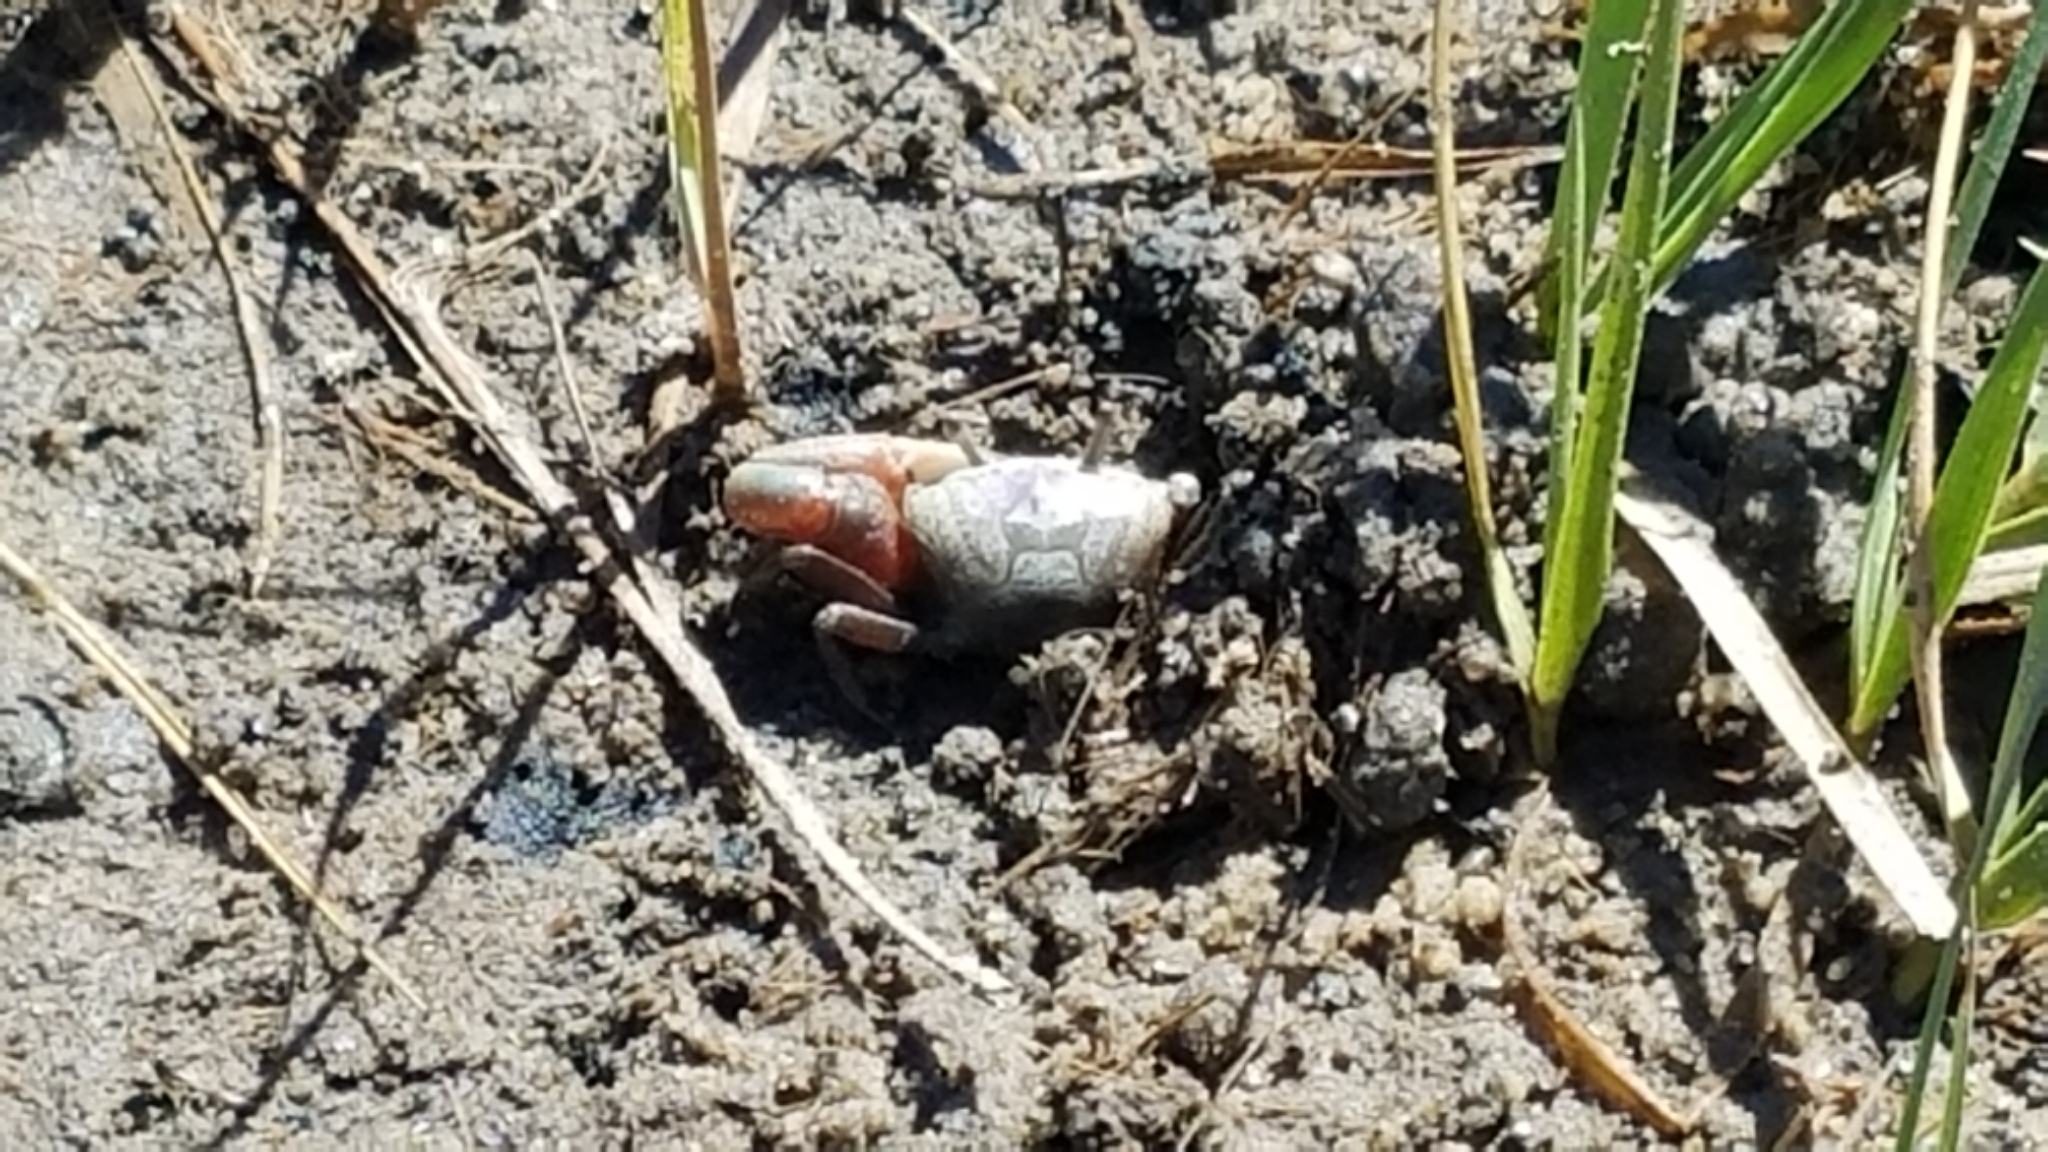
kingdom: Animalia
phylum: Arthropoda
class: Malacostraca
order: Decapoda
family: Ocypodidae
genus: Leptuca
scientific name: Leptuca pugilator
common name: Atlantic sand fiddler crab
